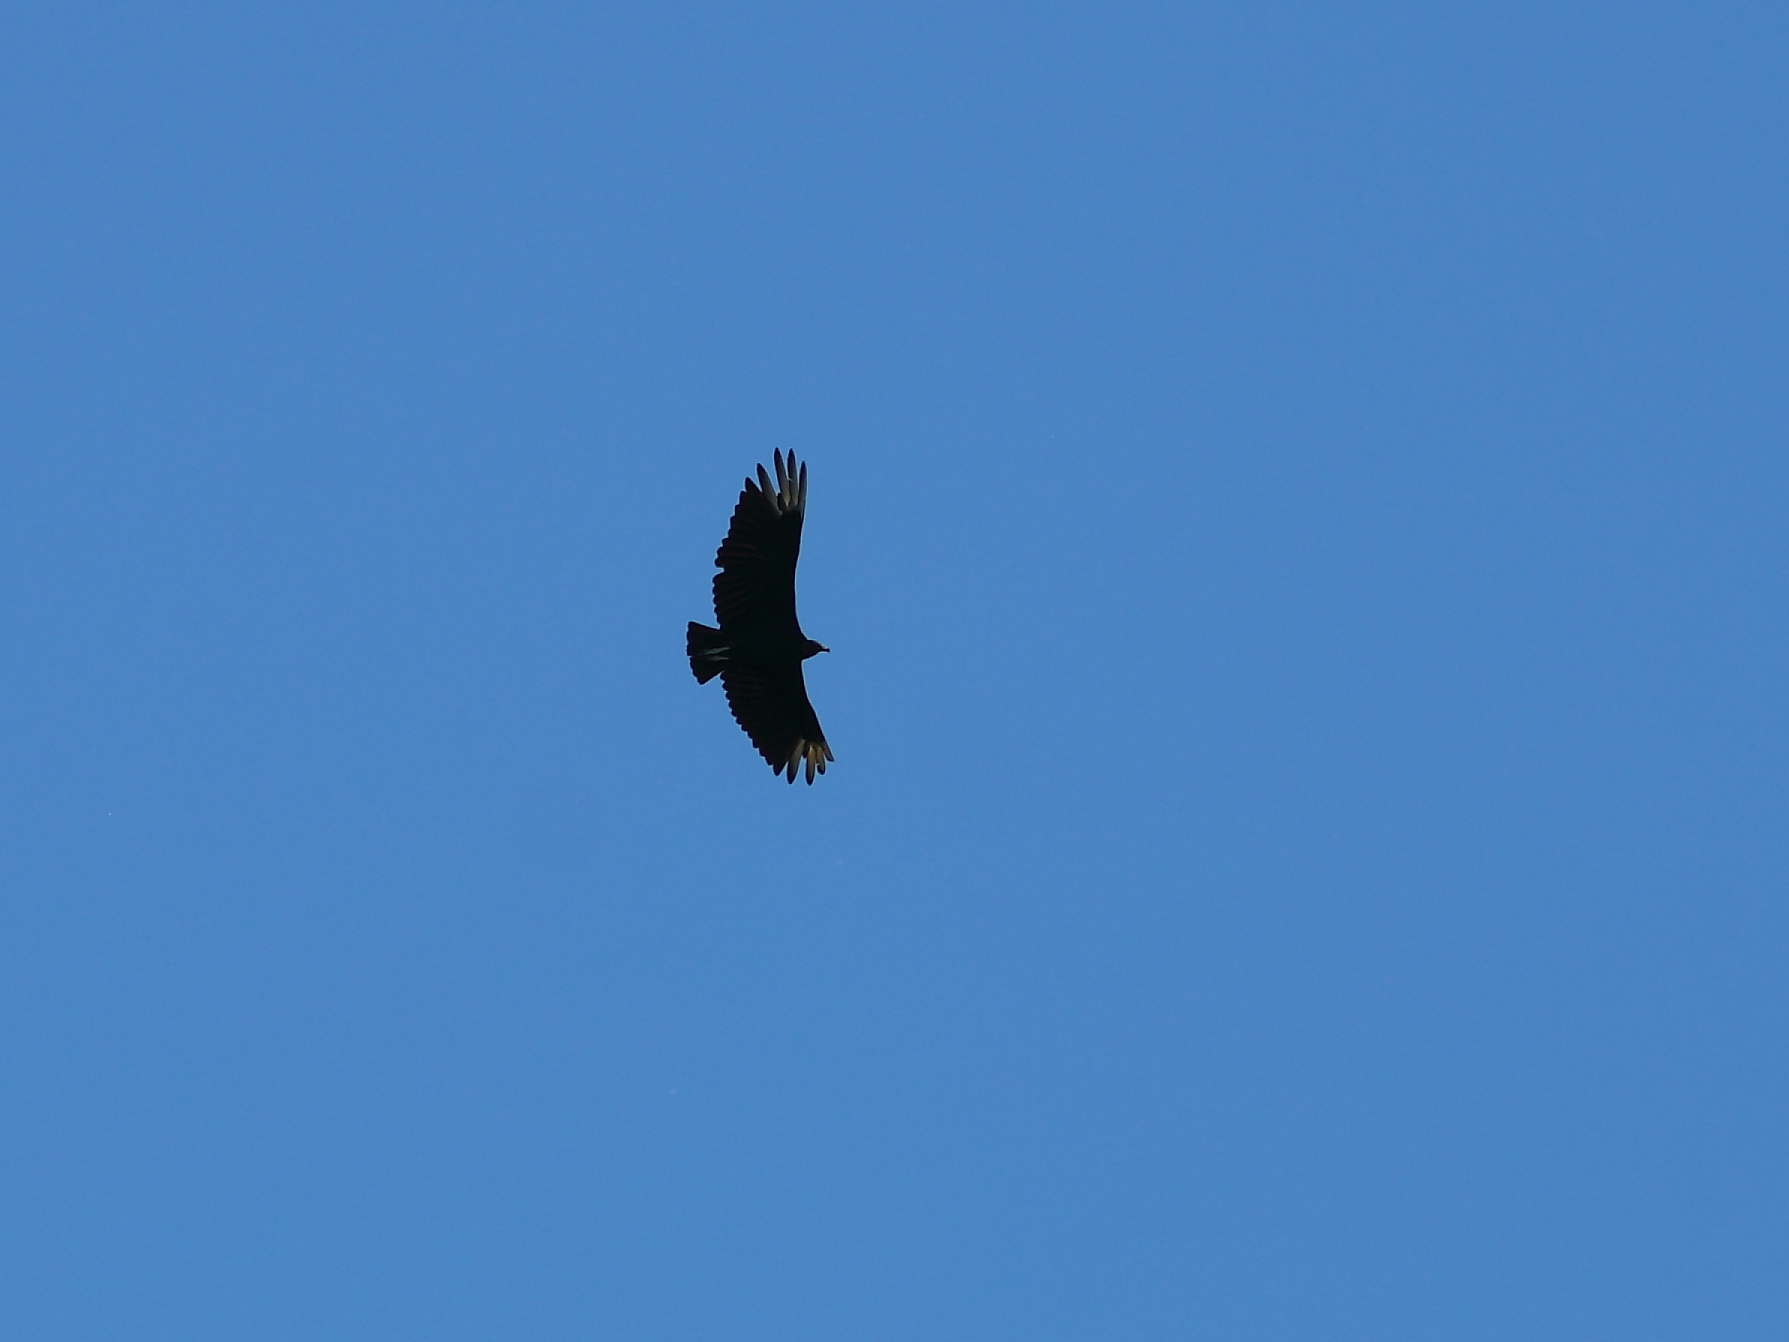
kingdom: Animalia
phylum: Chordata
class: Aves
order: Accipitriformes
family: Cathartidae
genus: Coragyps
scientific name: Coragyps atratus
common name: Black vulture
